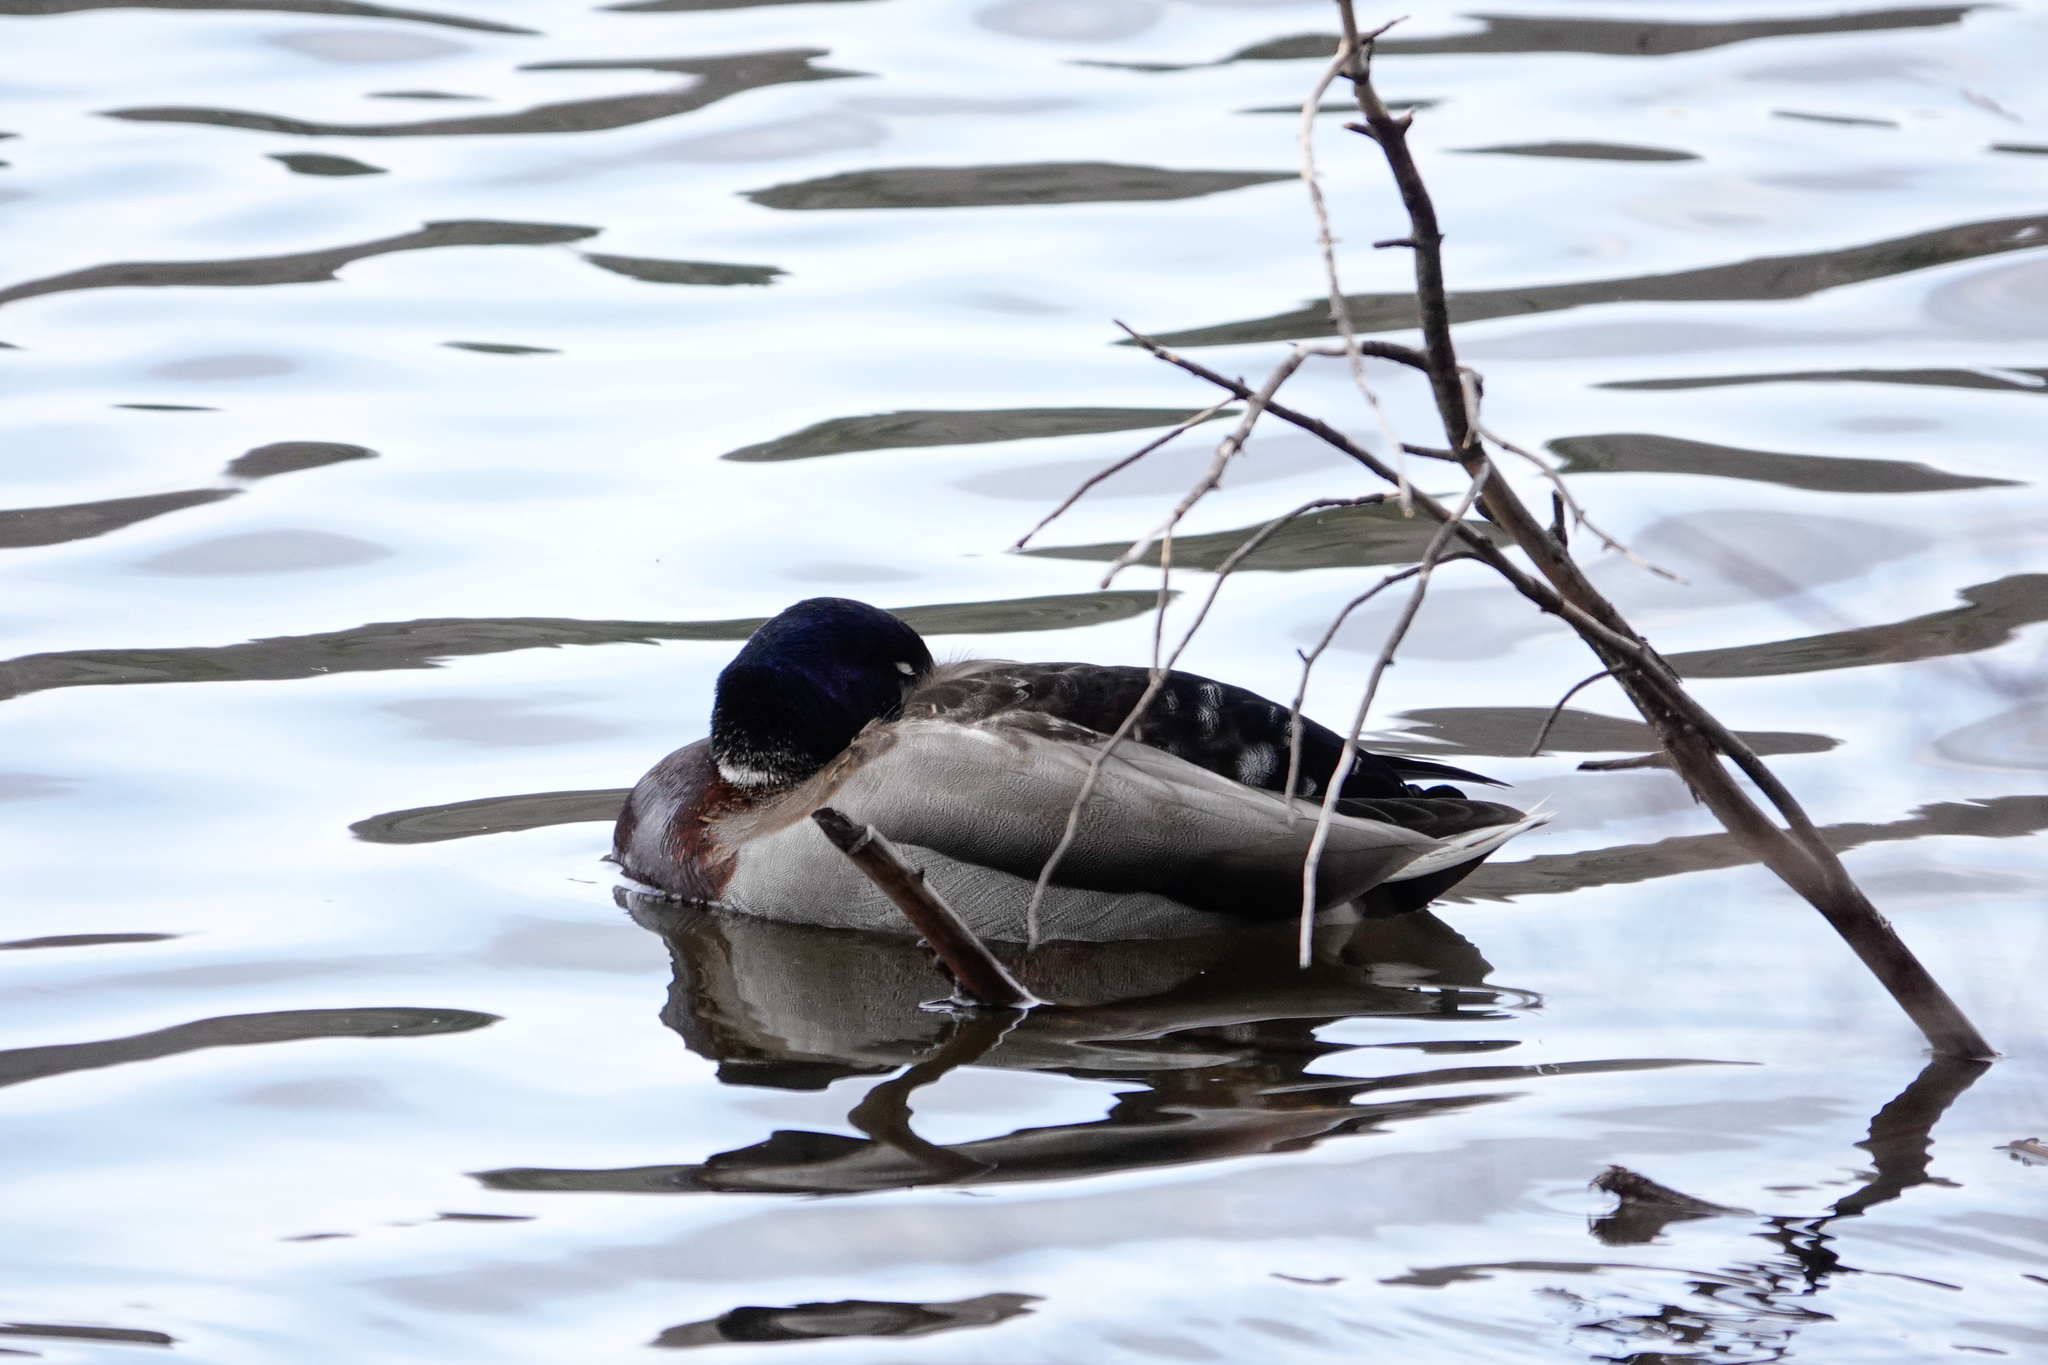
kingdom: Animalia
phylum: Chordata
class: Aves
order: Anseriformes
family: Anatidae
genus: Anas
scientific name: Anas platyrhynchos
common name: Mallard
